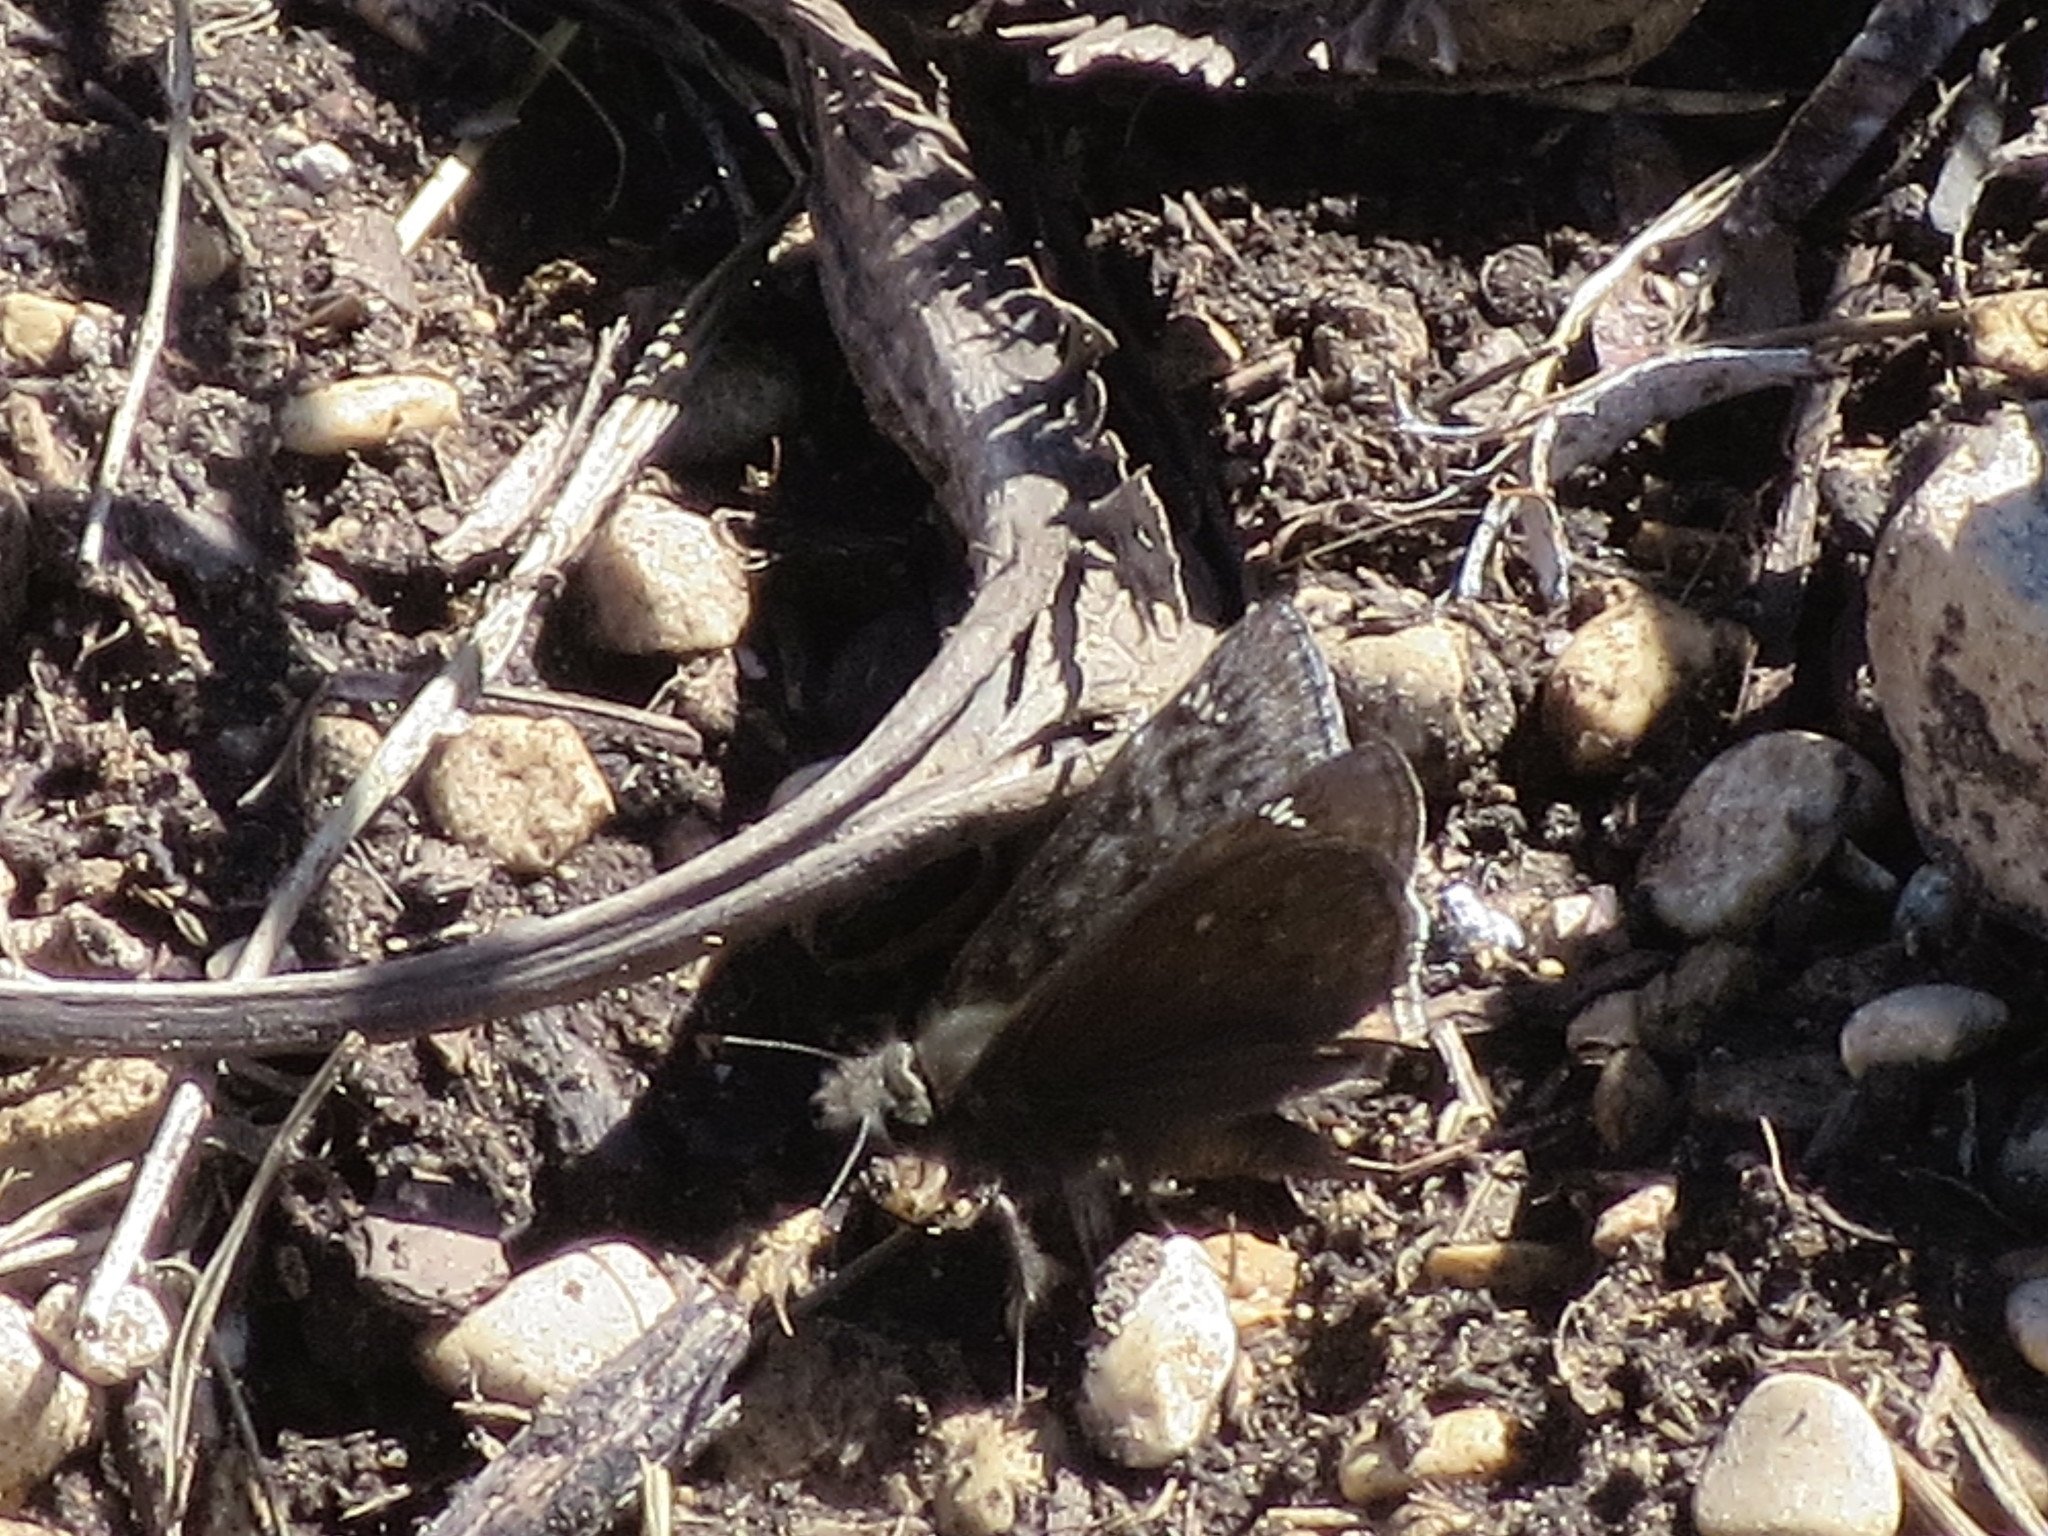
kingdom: Animalia
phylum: Arthropoda
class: Insecta
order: Lepidoptera
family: Hesperiidae
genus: Erynnis
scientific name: Erynnis juvenalis
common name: Juvenal's duskywing
